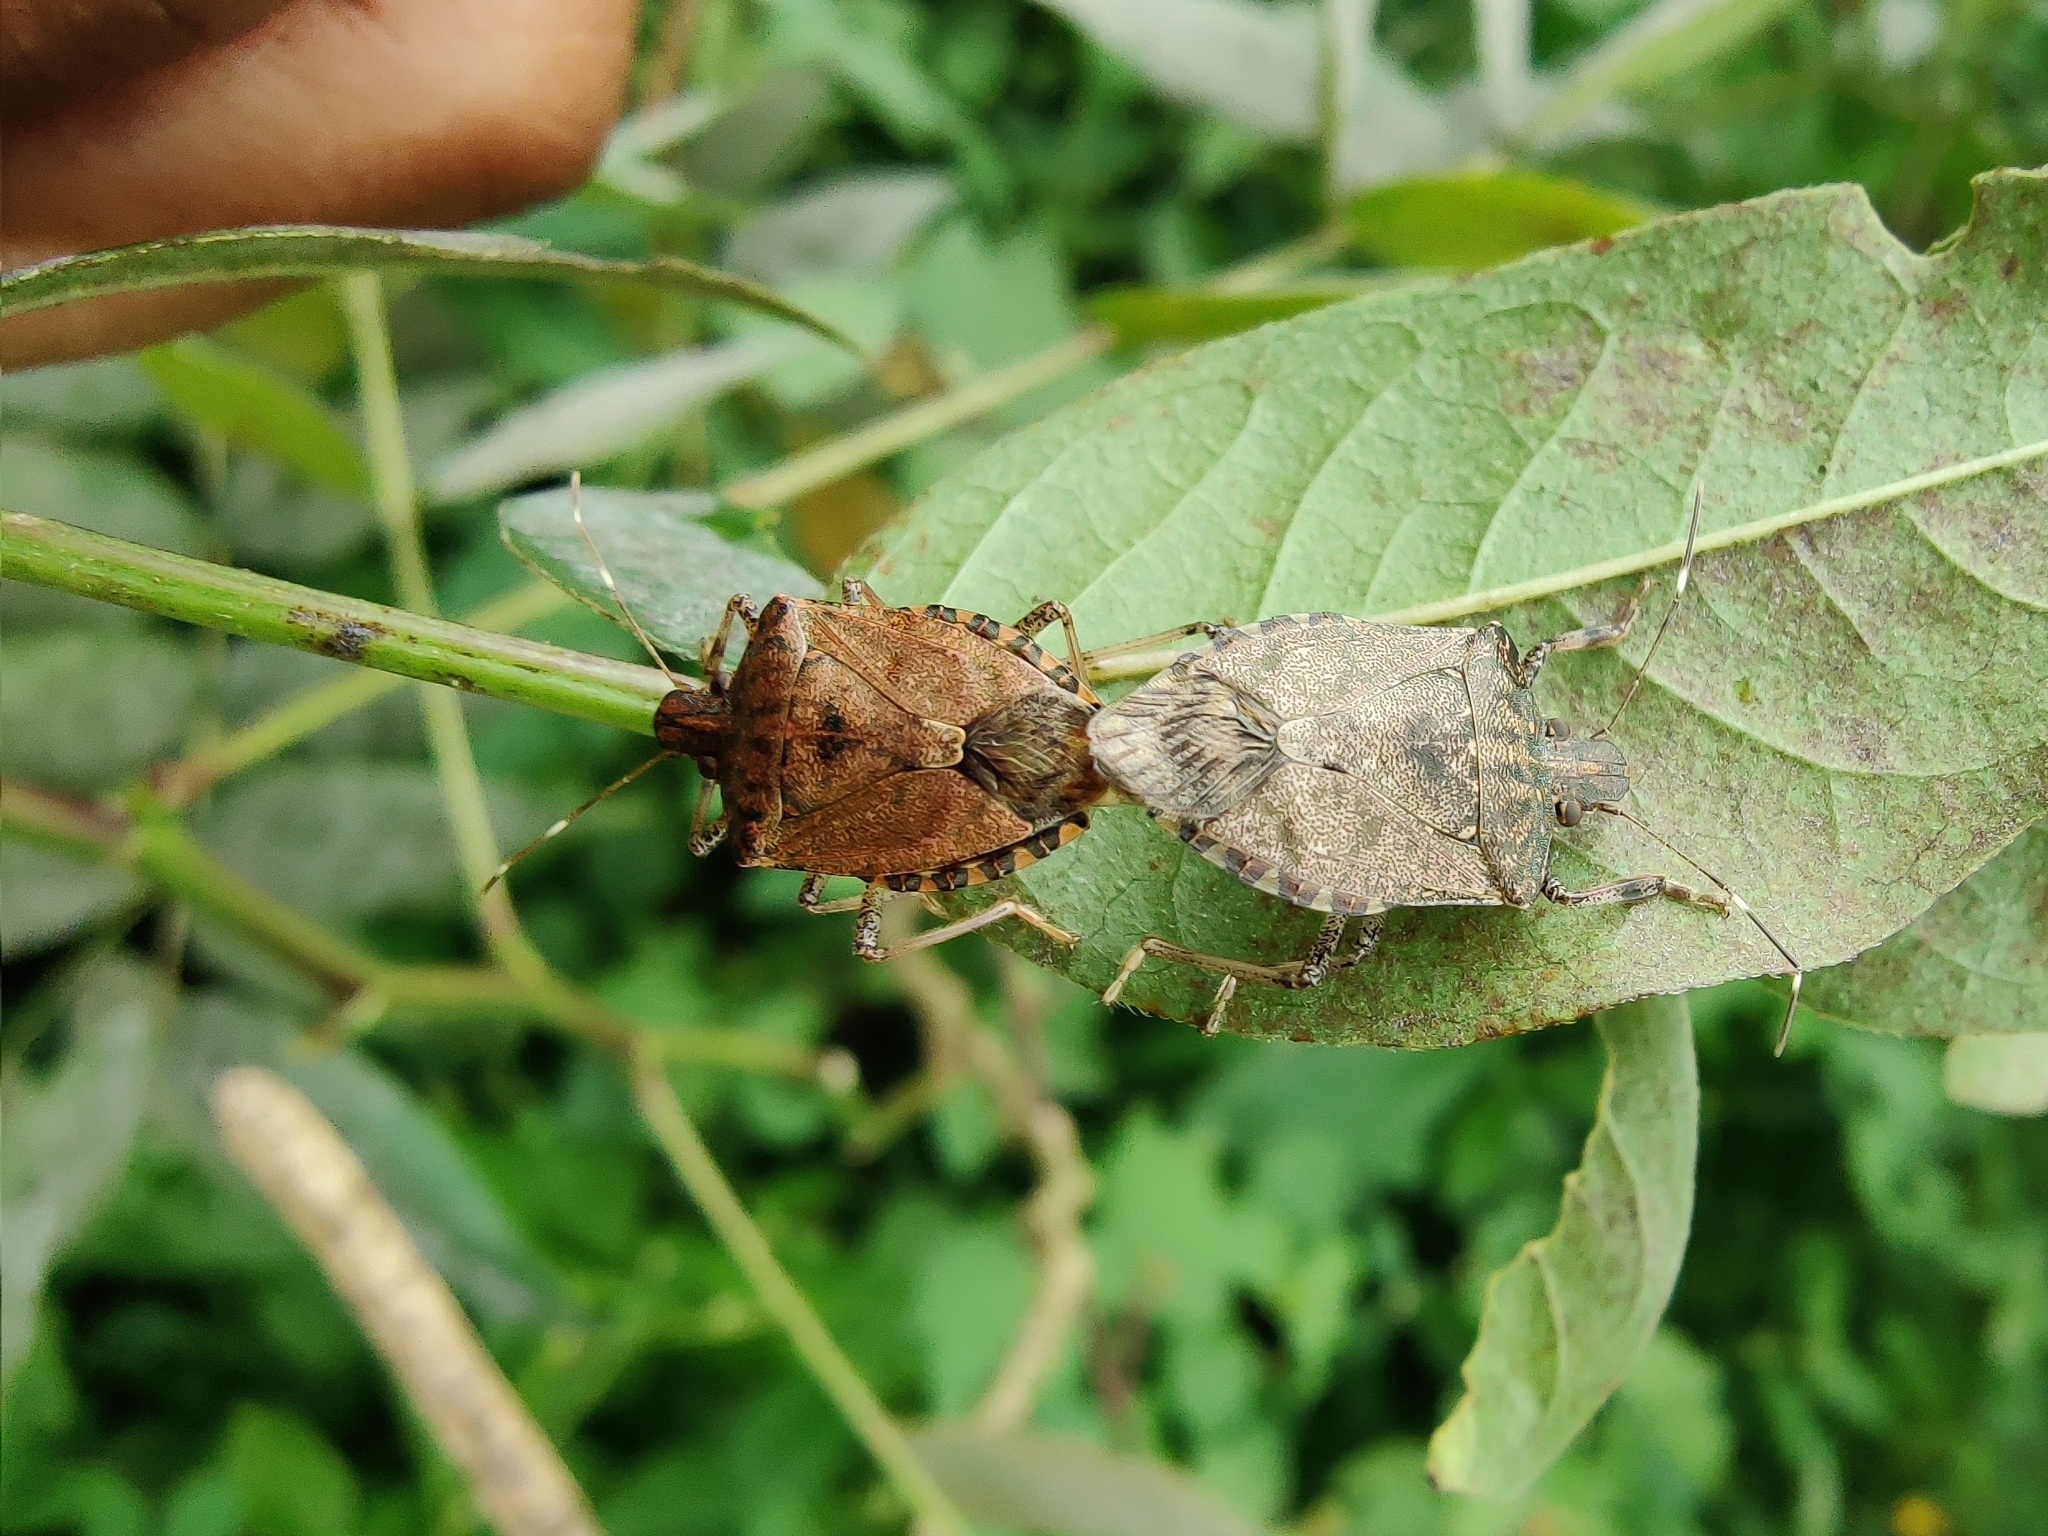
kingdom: Animalia
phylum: Arthropoda
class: Insecta
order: Hemiptera
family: Pentatomidae
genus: Halyomorpha
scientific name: Halyomorpha picus
